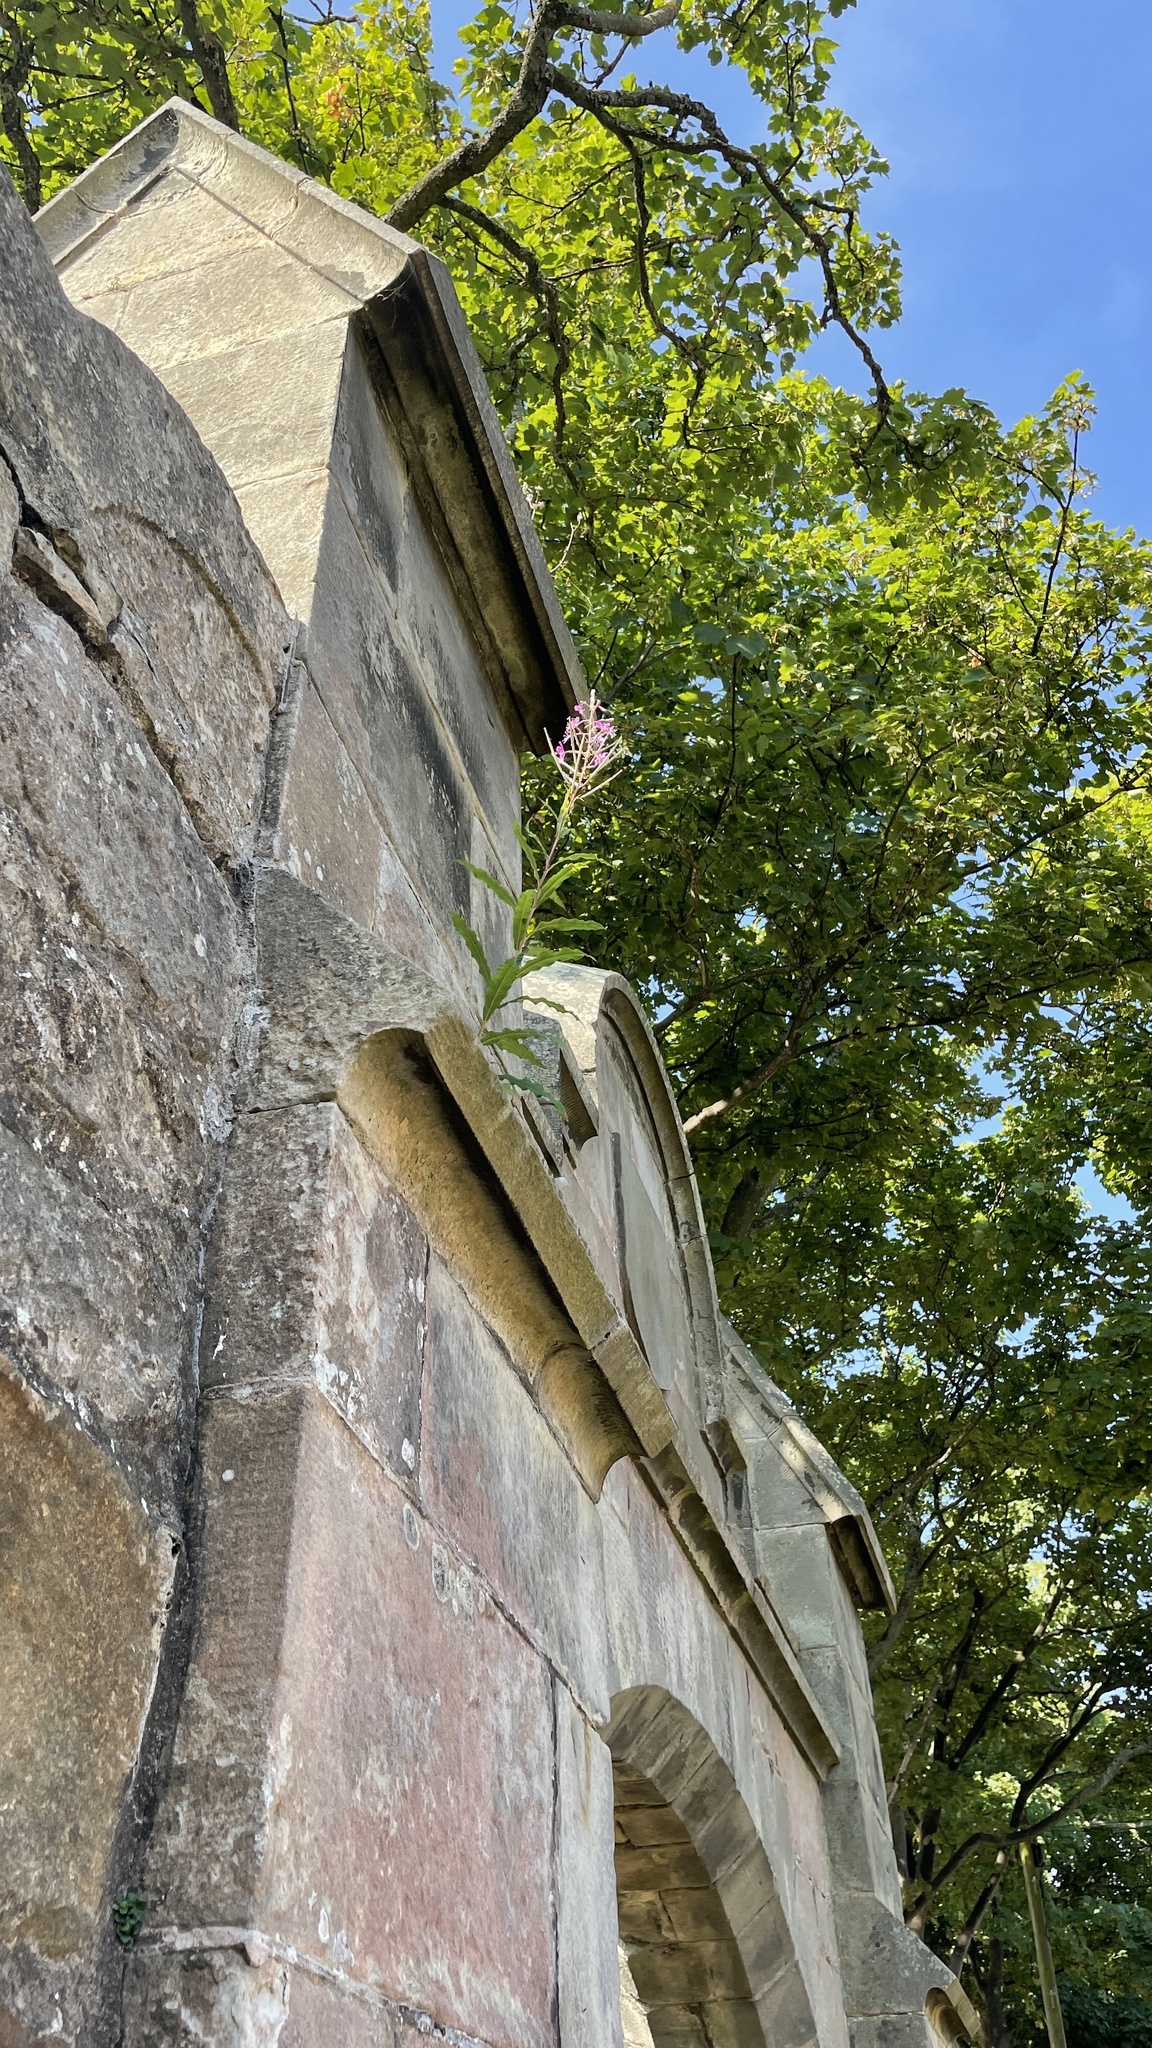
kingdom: Plantae
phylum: Tracheophyta
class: Magnoliopsida
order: Myrtales
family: Onagraceae
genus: Chamaenerion
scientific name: Chamaenerion angustifolium
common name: Fireweed
